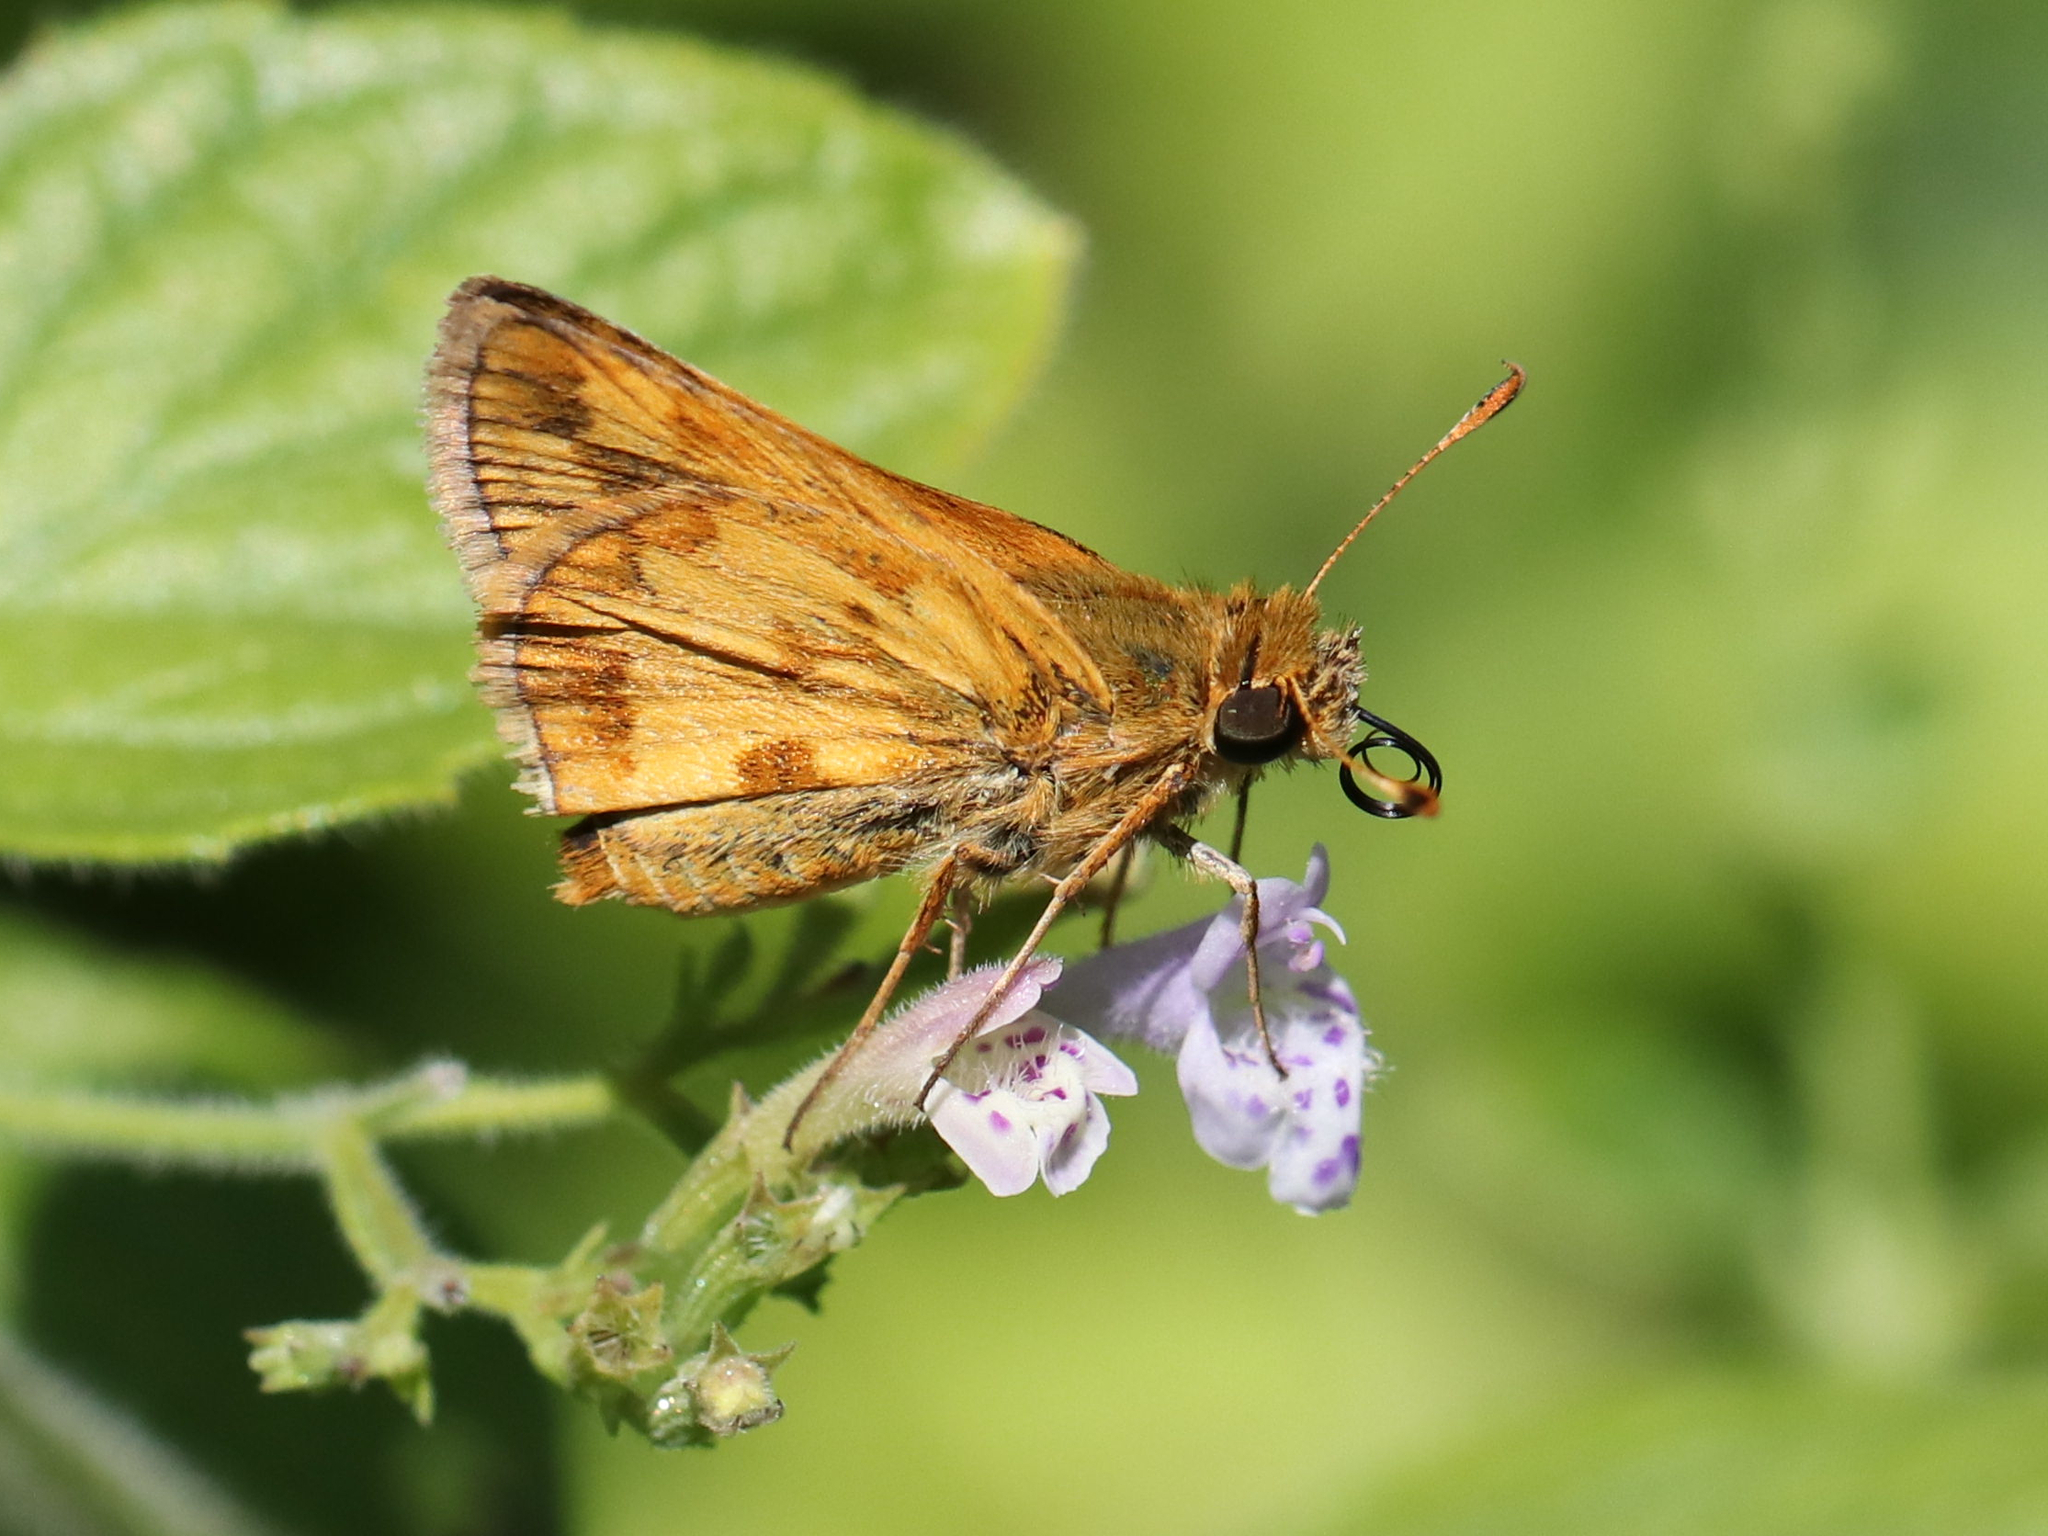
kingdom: Animalia
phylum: Arthropoda
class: Insecta
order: Lepidoptera
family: Hesperiidae
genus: Polites
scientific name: Polites coras
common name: Peck's skipper
